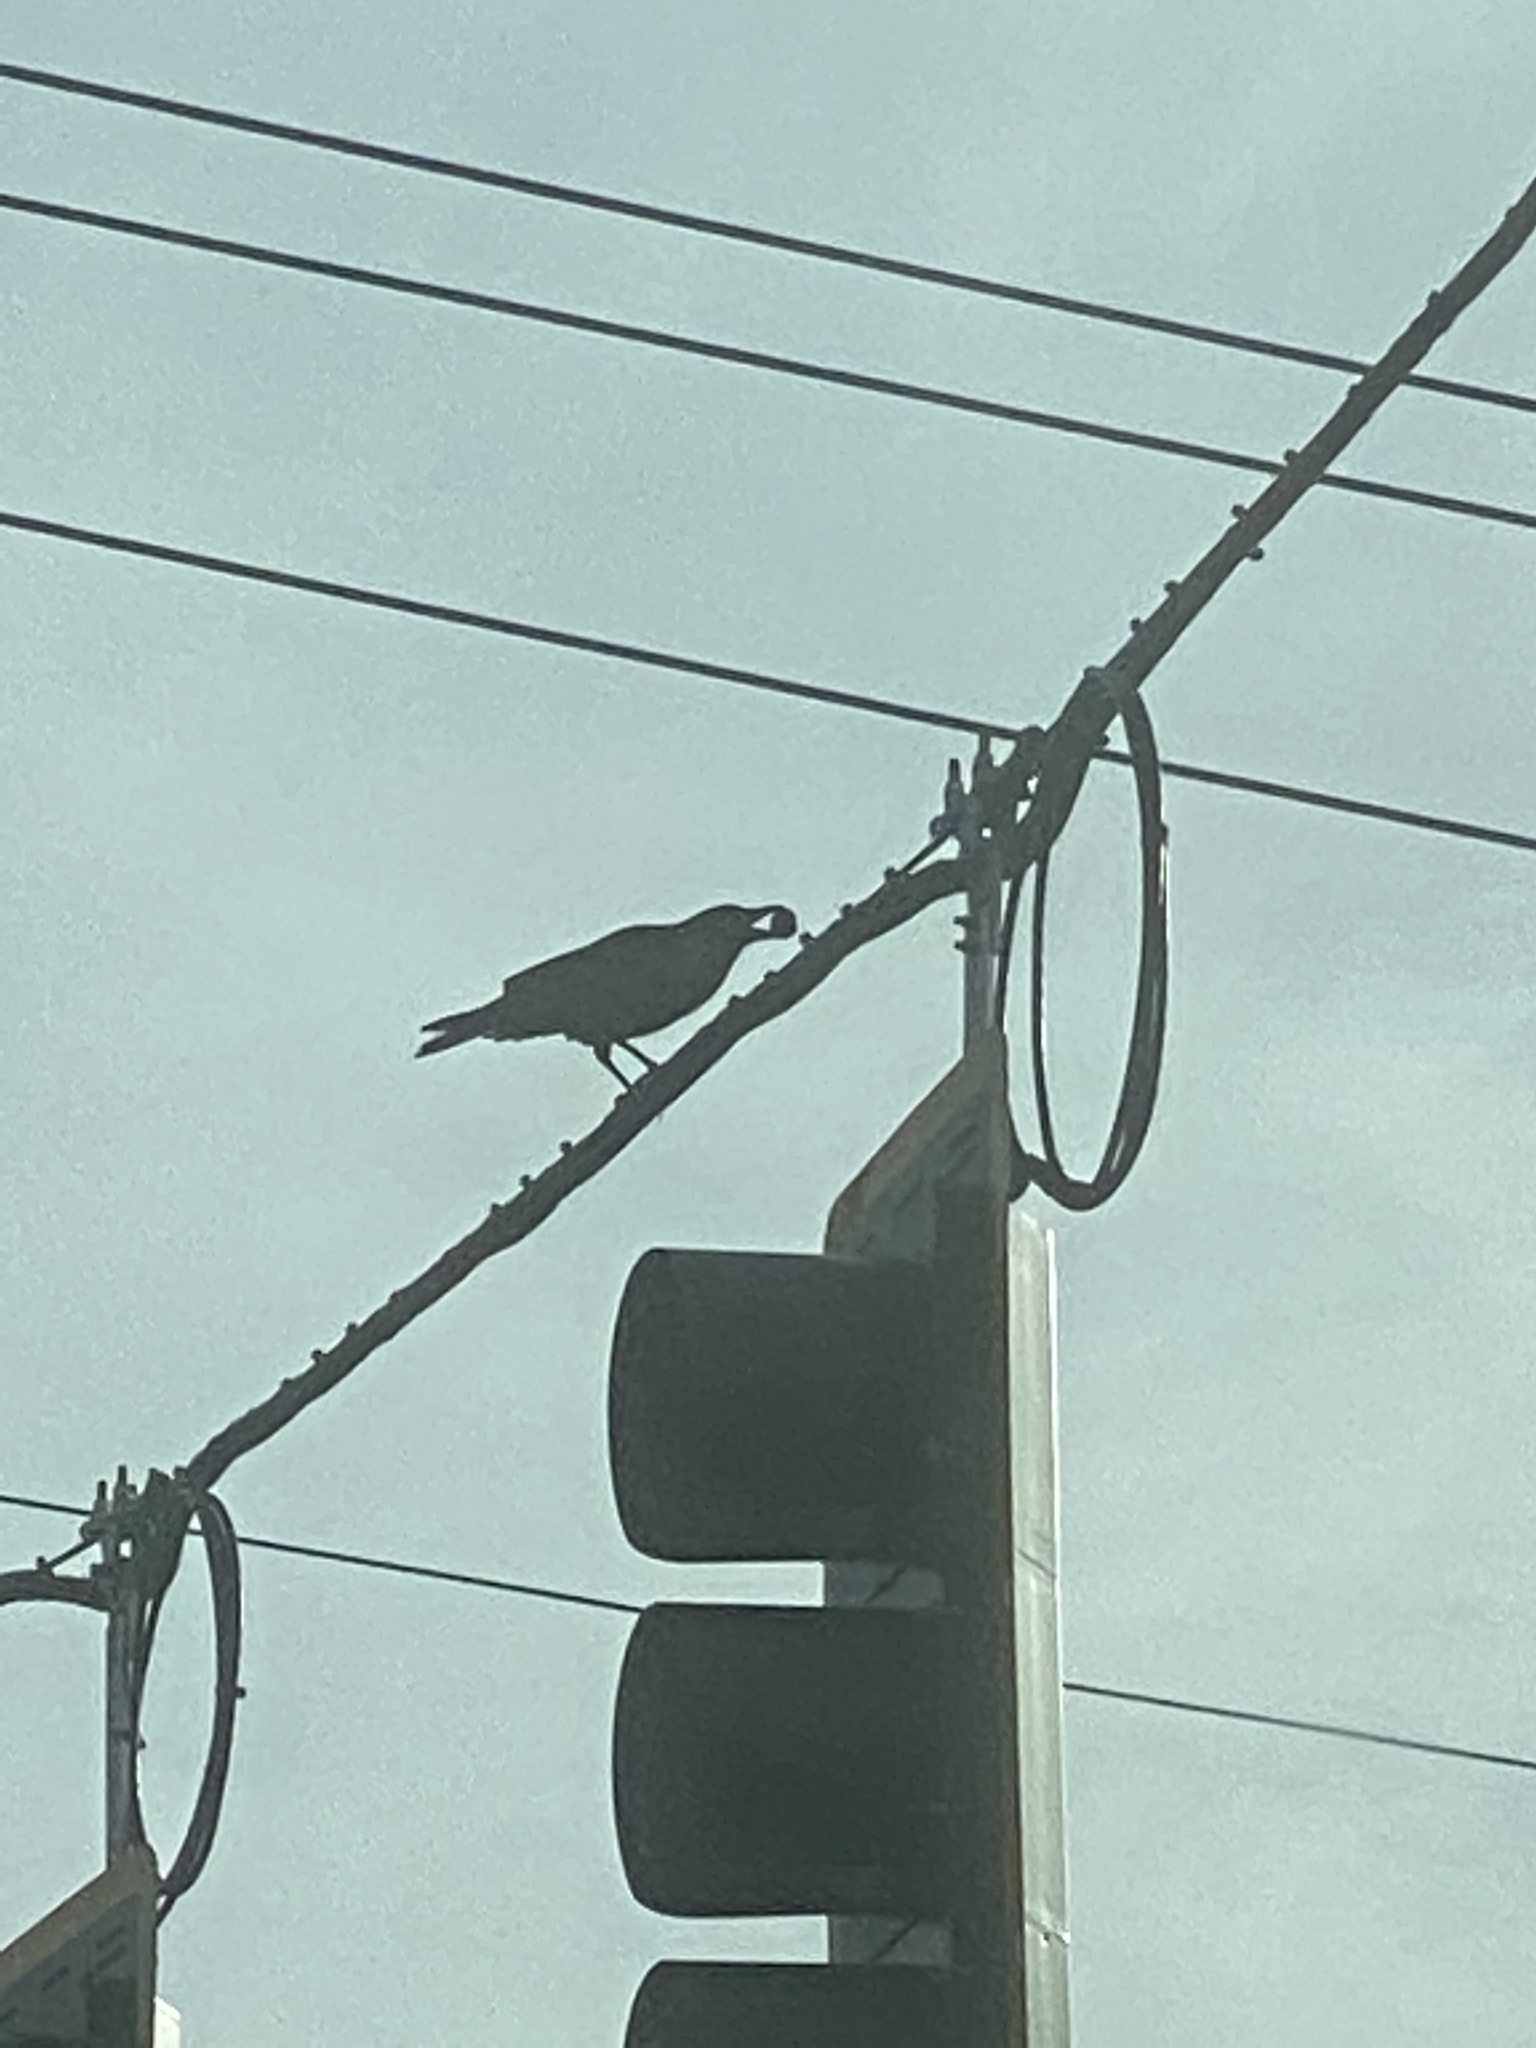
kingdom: Animalia
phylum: Chordata
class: Aves
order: Passeriformes
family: Corvidae
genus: Corvus
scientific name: Corvus brachyrhynchos
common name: American crow
